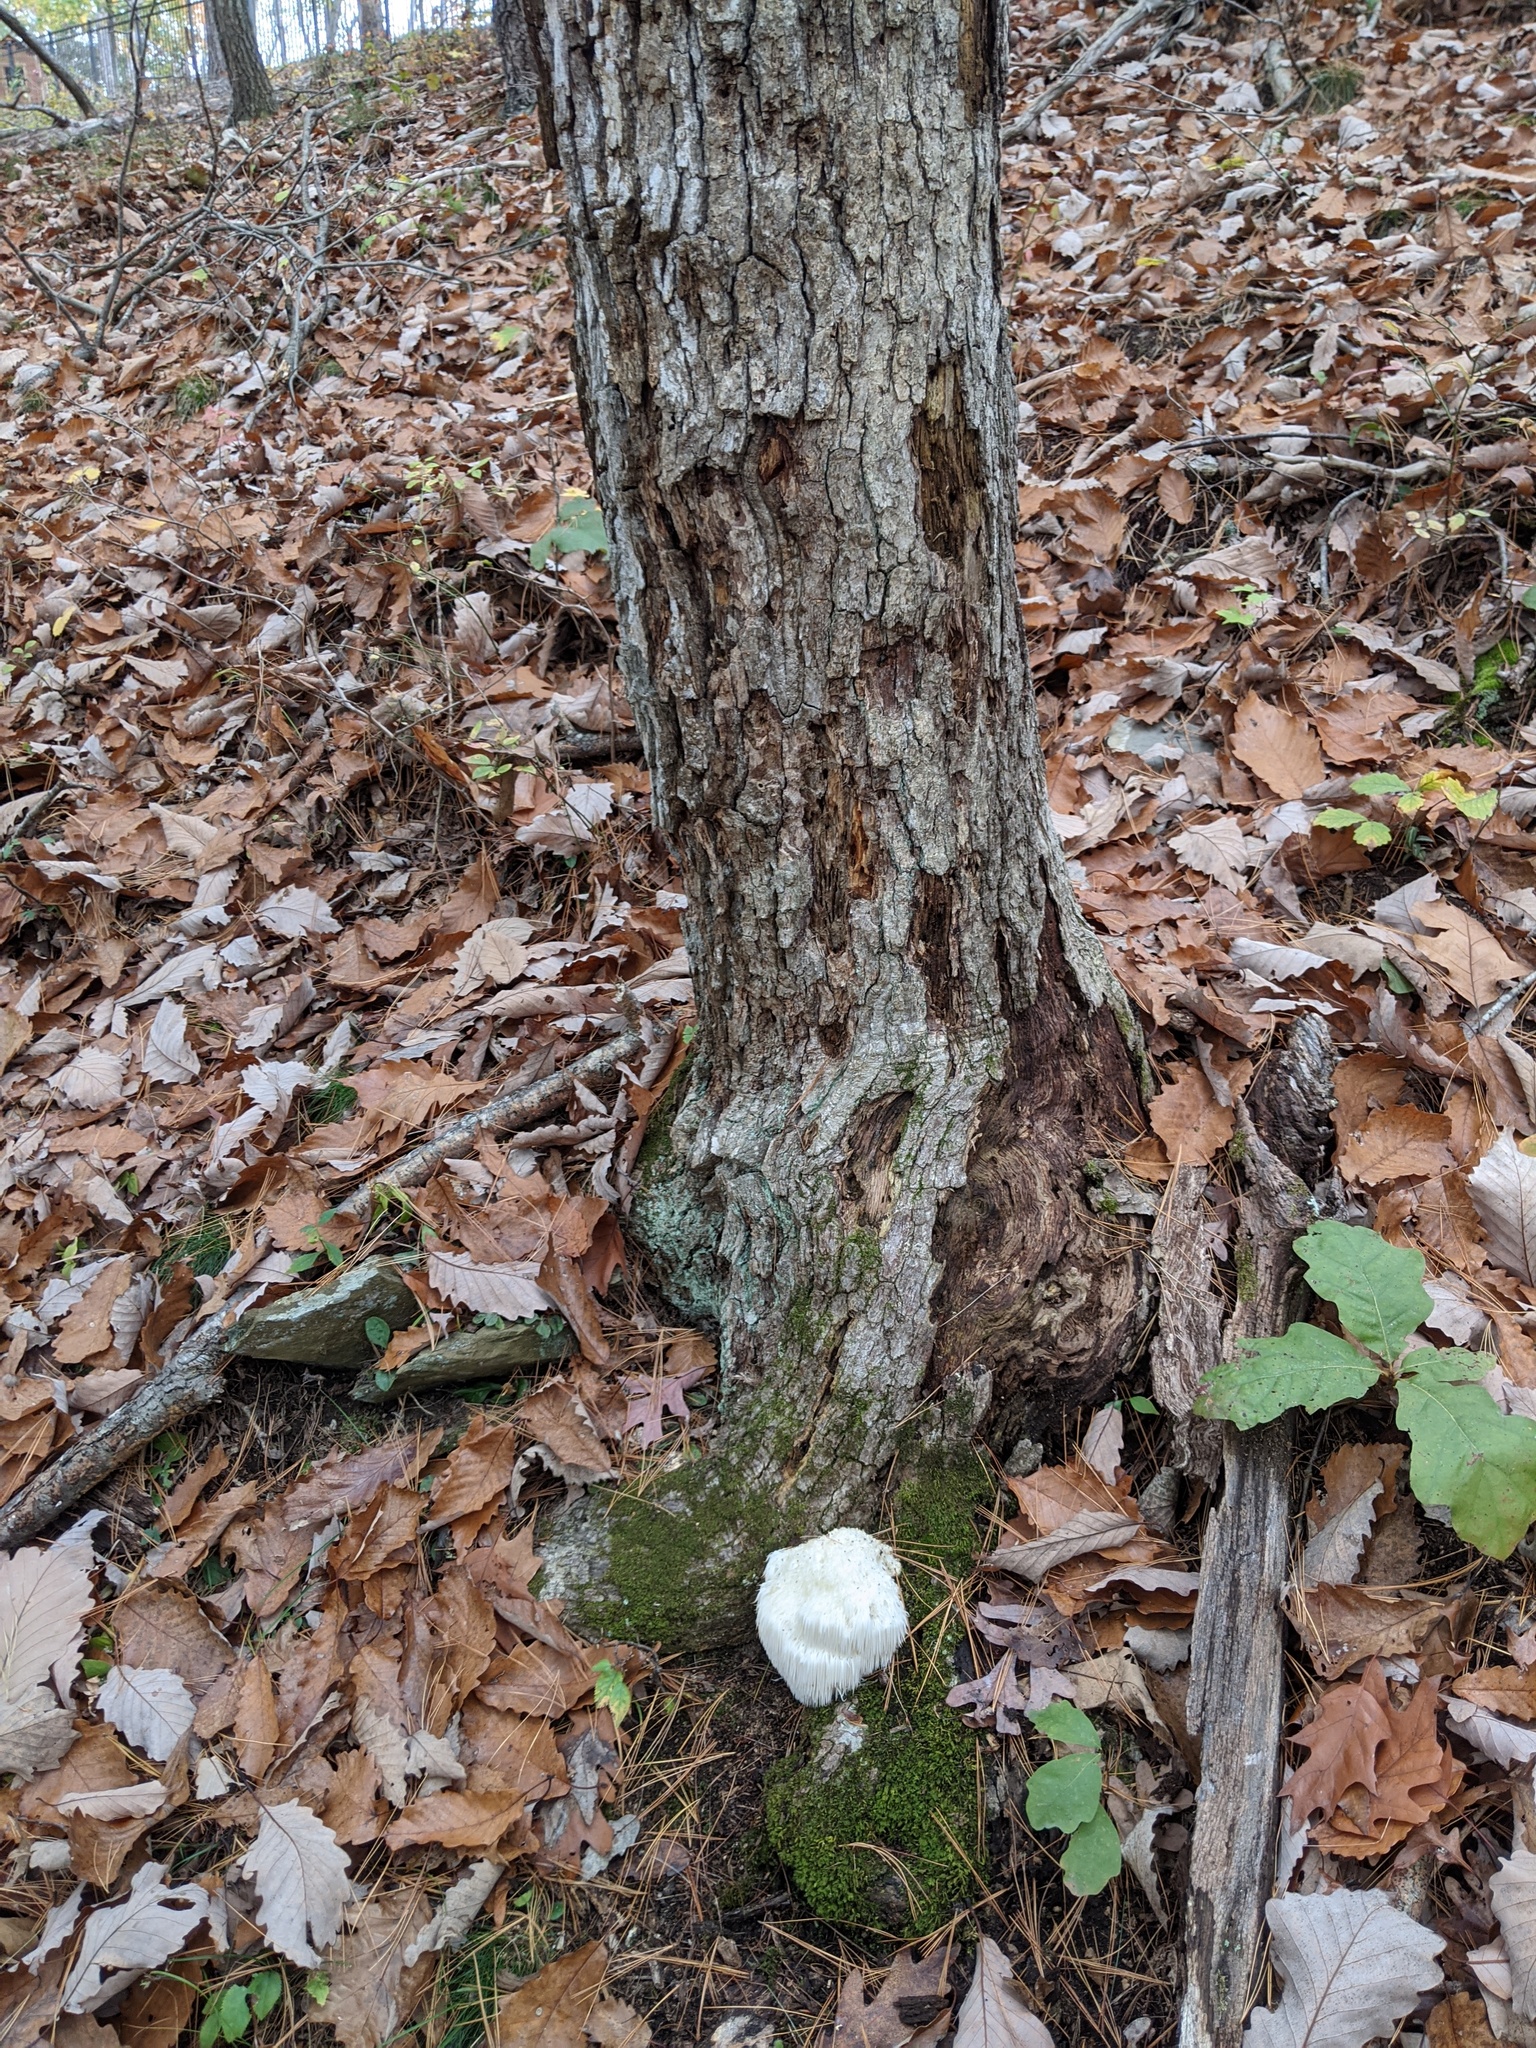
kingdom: Fungi
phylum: Basidiomycota
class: Agaricomycetes
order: Russulales
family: Hericiaceae
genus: Hericium
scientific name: Hericium erinaceus
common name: Bearded tooth
